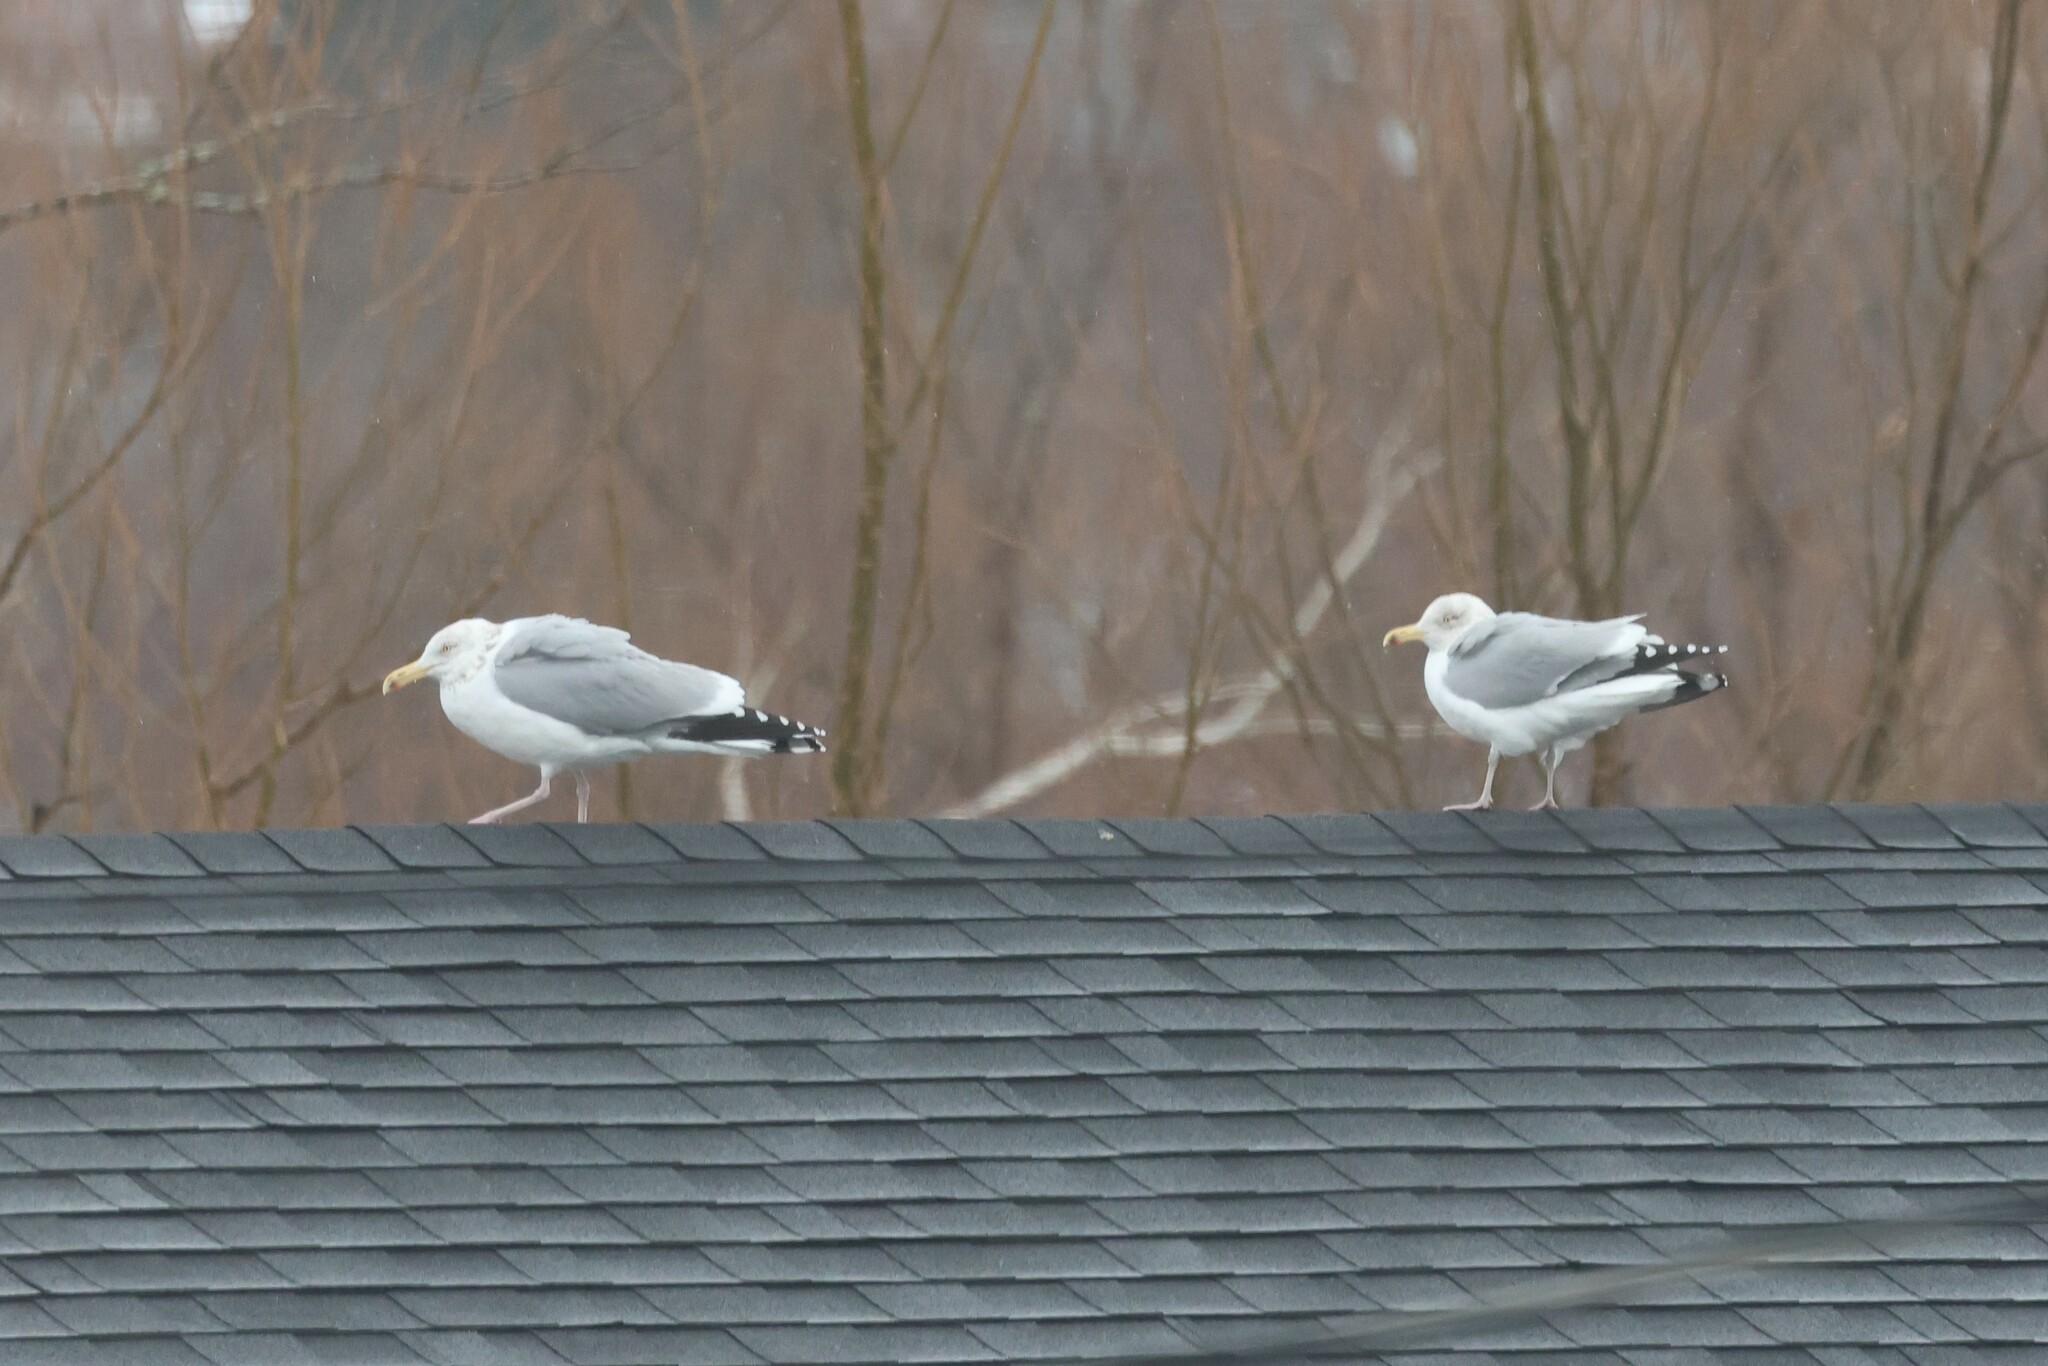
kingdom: Animalia
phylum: Chordata
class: Aves
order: Charadriiformes
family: Laridae
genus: Larus
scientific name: Larus argentatus
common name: Herring gull
